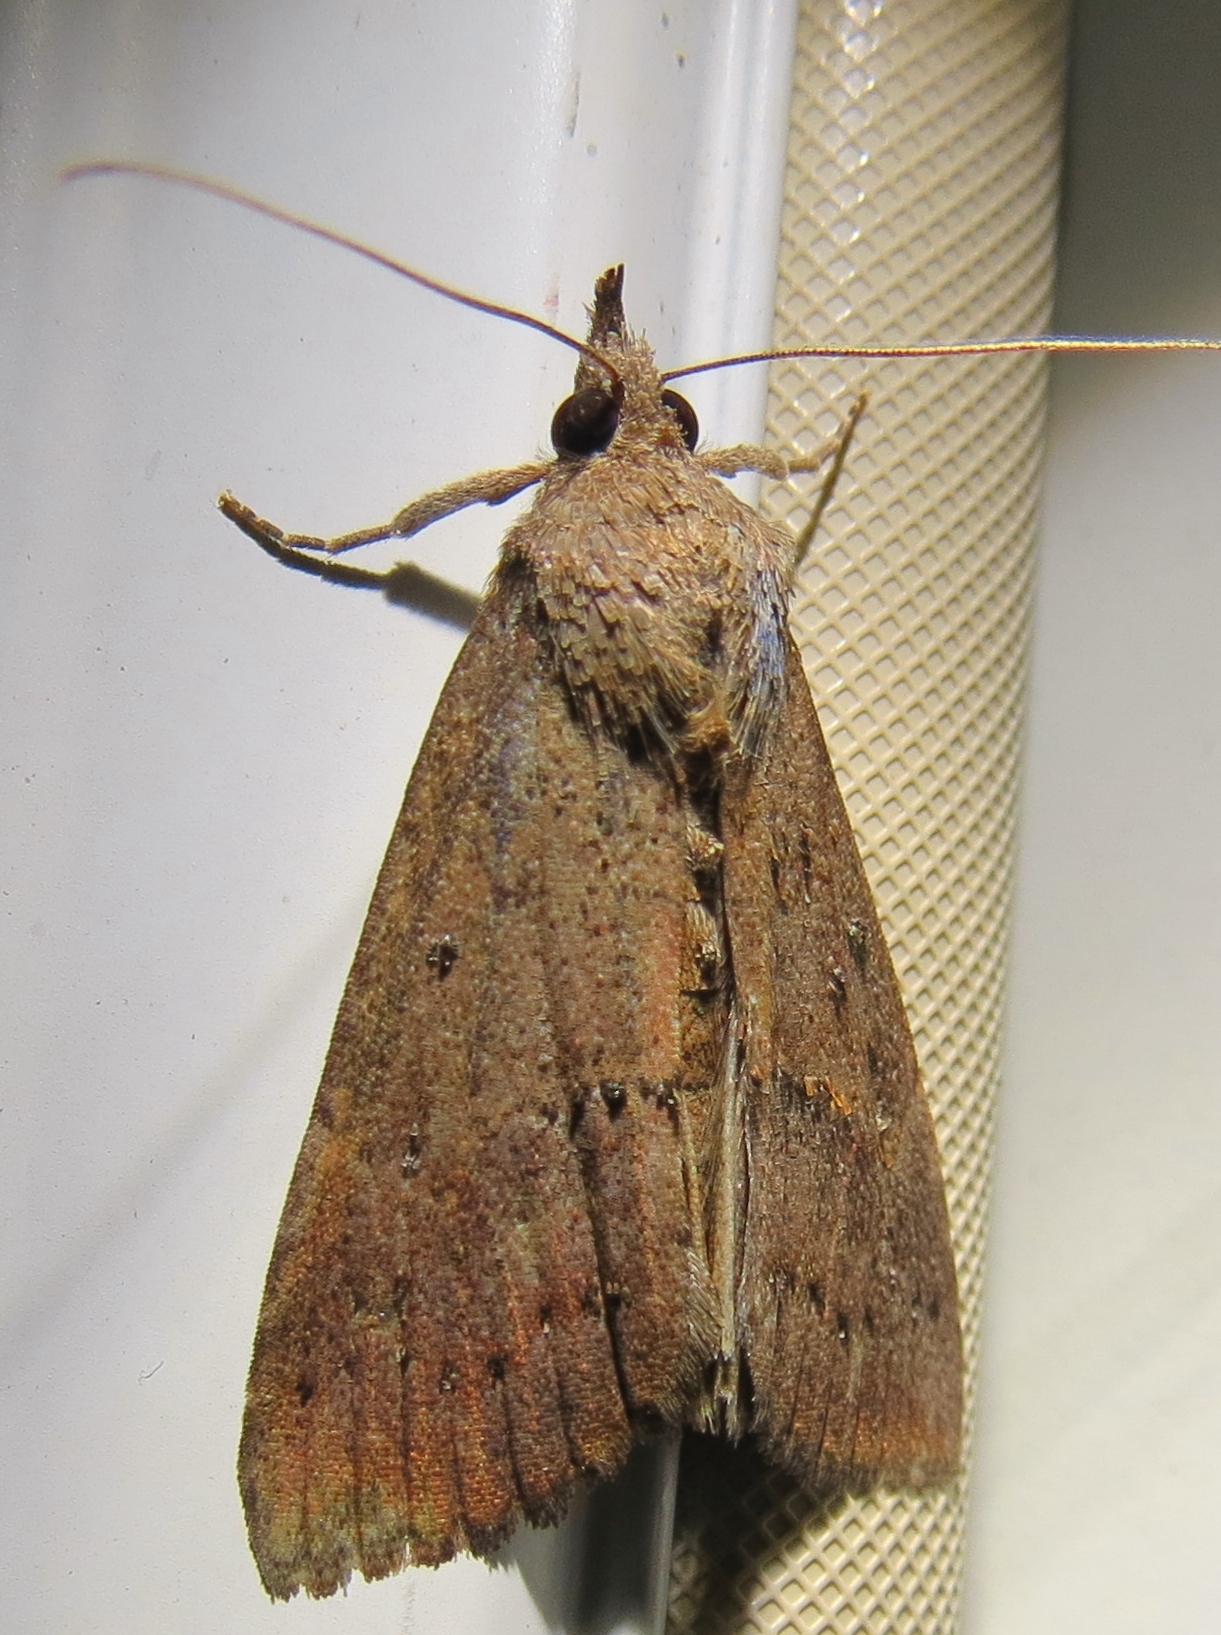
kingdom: Animalia
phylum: Arthropoda
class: Insecta
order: Lepidoptera
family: Erebidae
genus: Hypena
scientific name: Hypena scabra
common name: Green cloverworm
